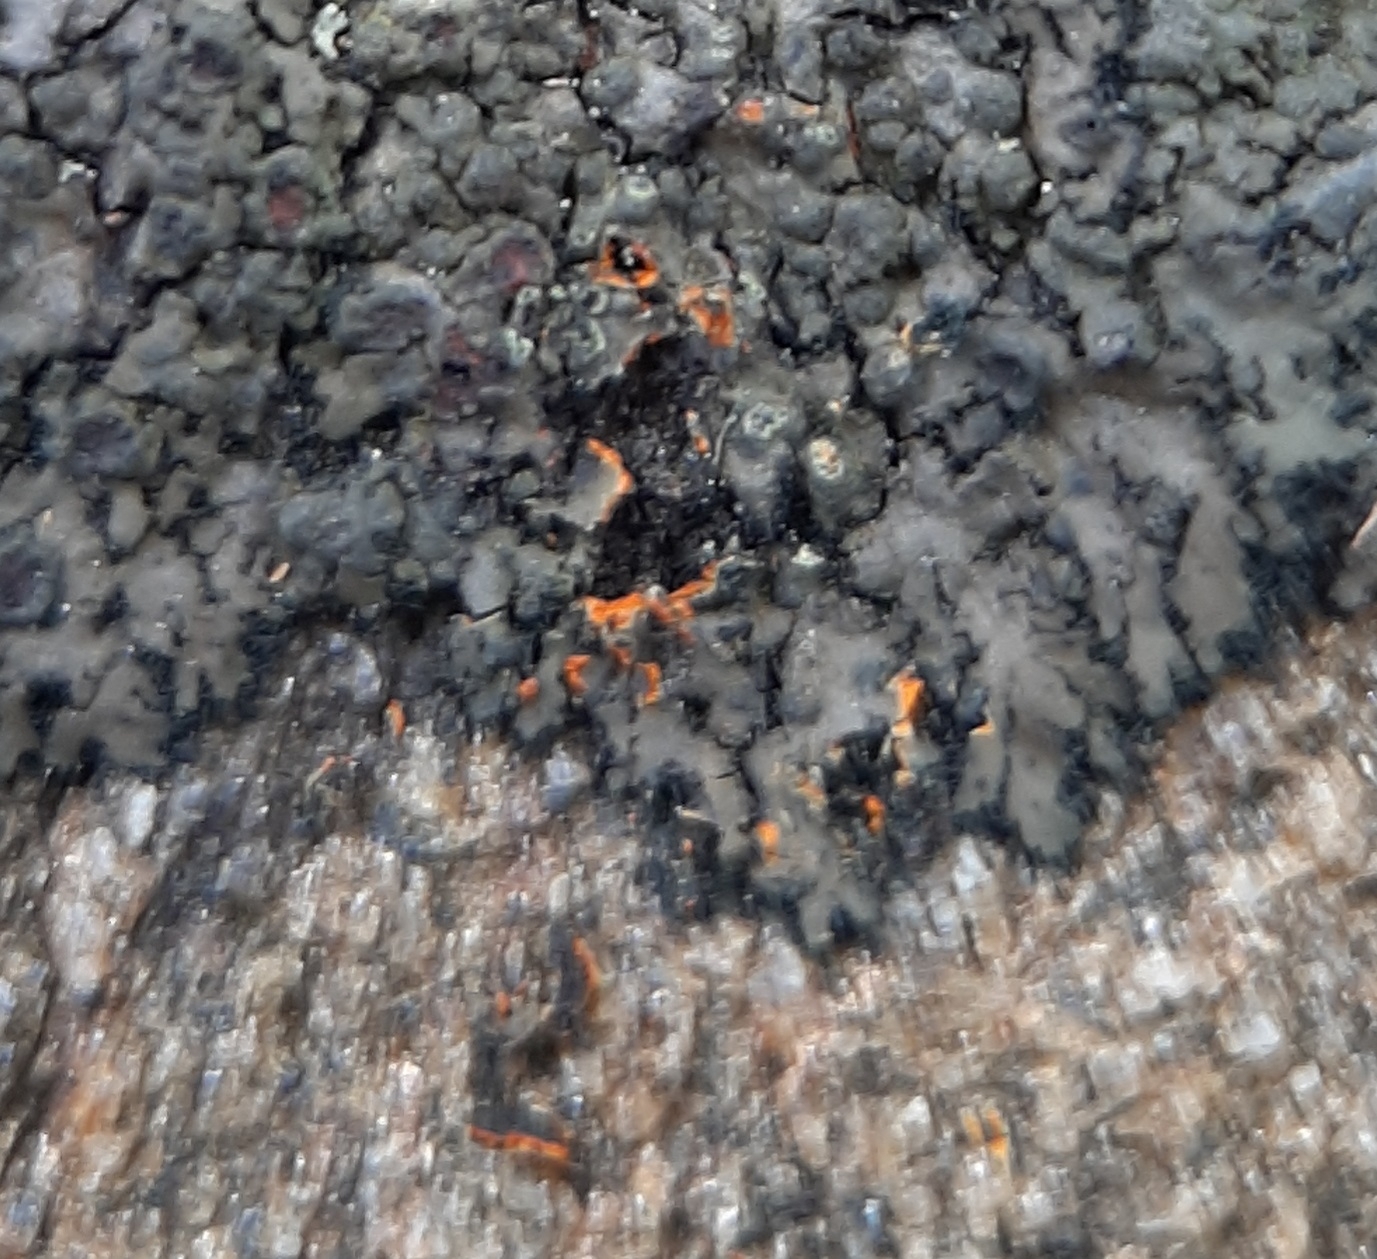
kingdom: Fungi
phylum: Ascomycota
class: Lecanoromycetes
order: Caliciales
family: Physciaceae
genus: Phaeophyscia
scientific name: Phaeophyscia rubropulchra
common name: Orange-cored shadow lichen
